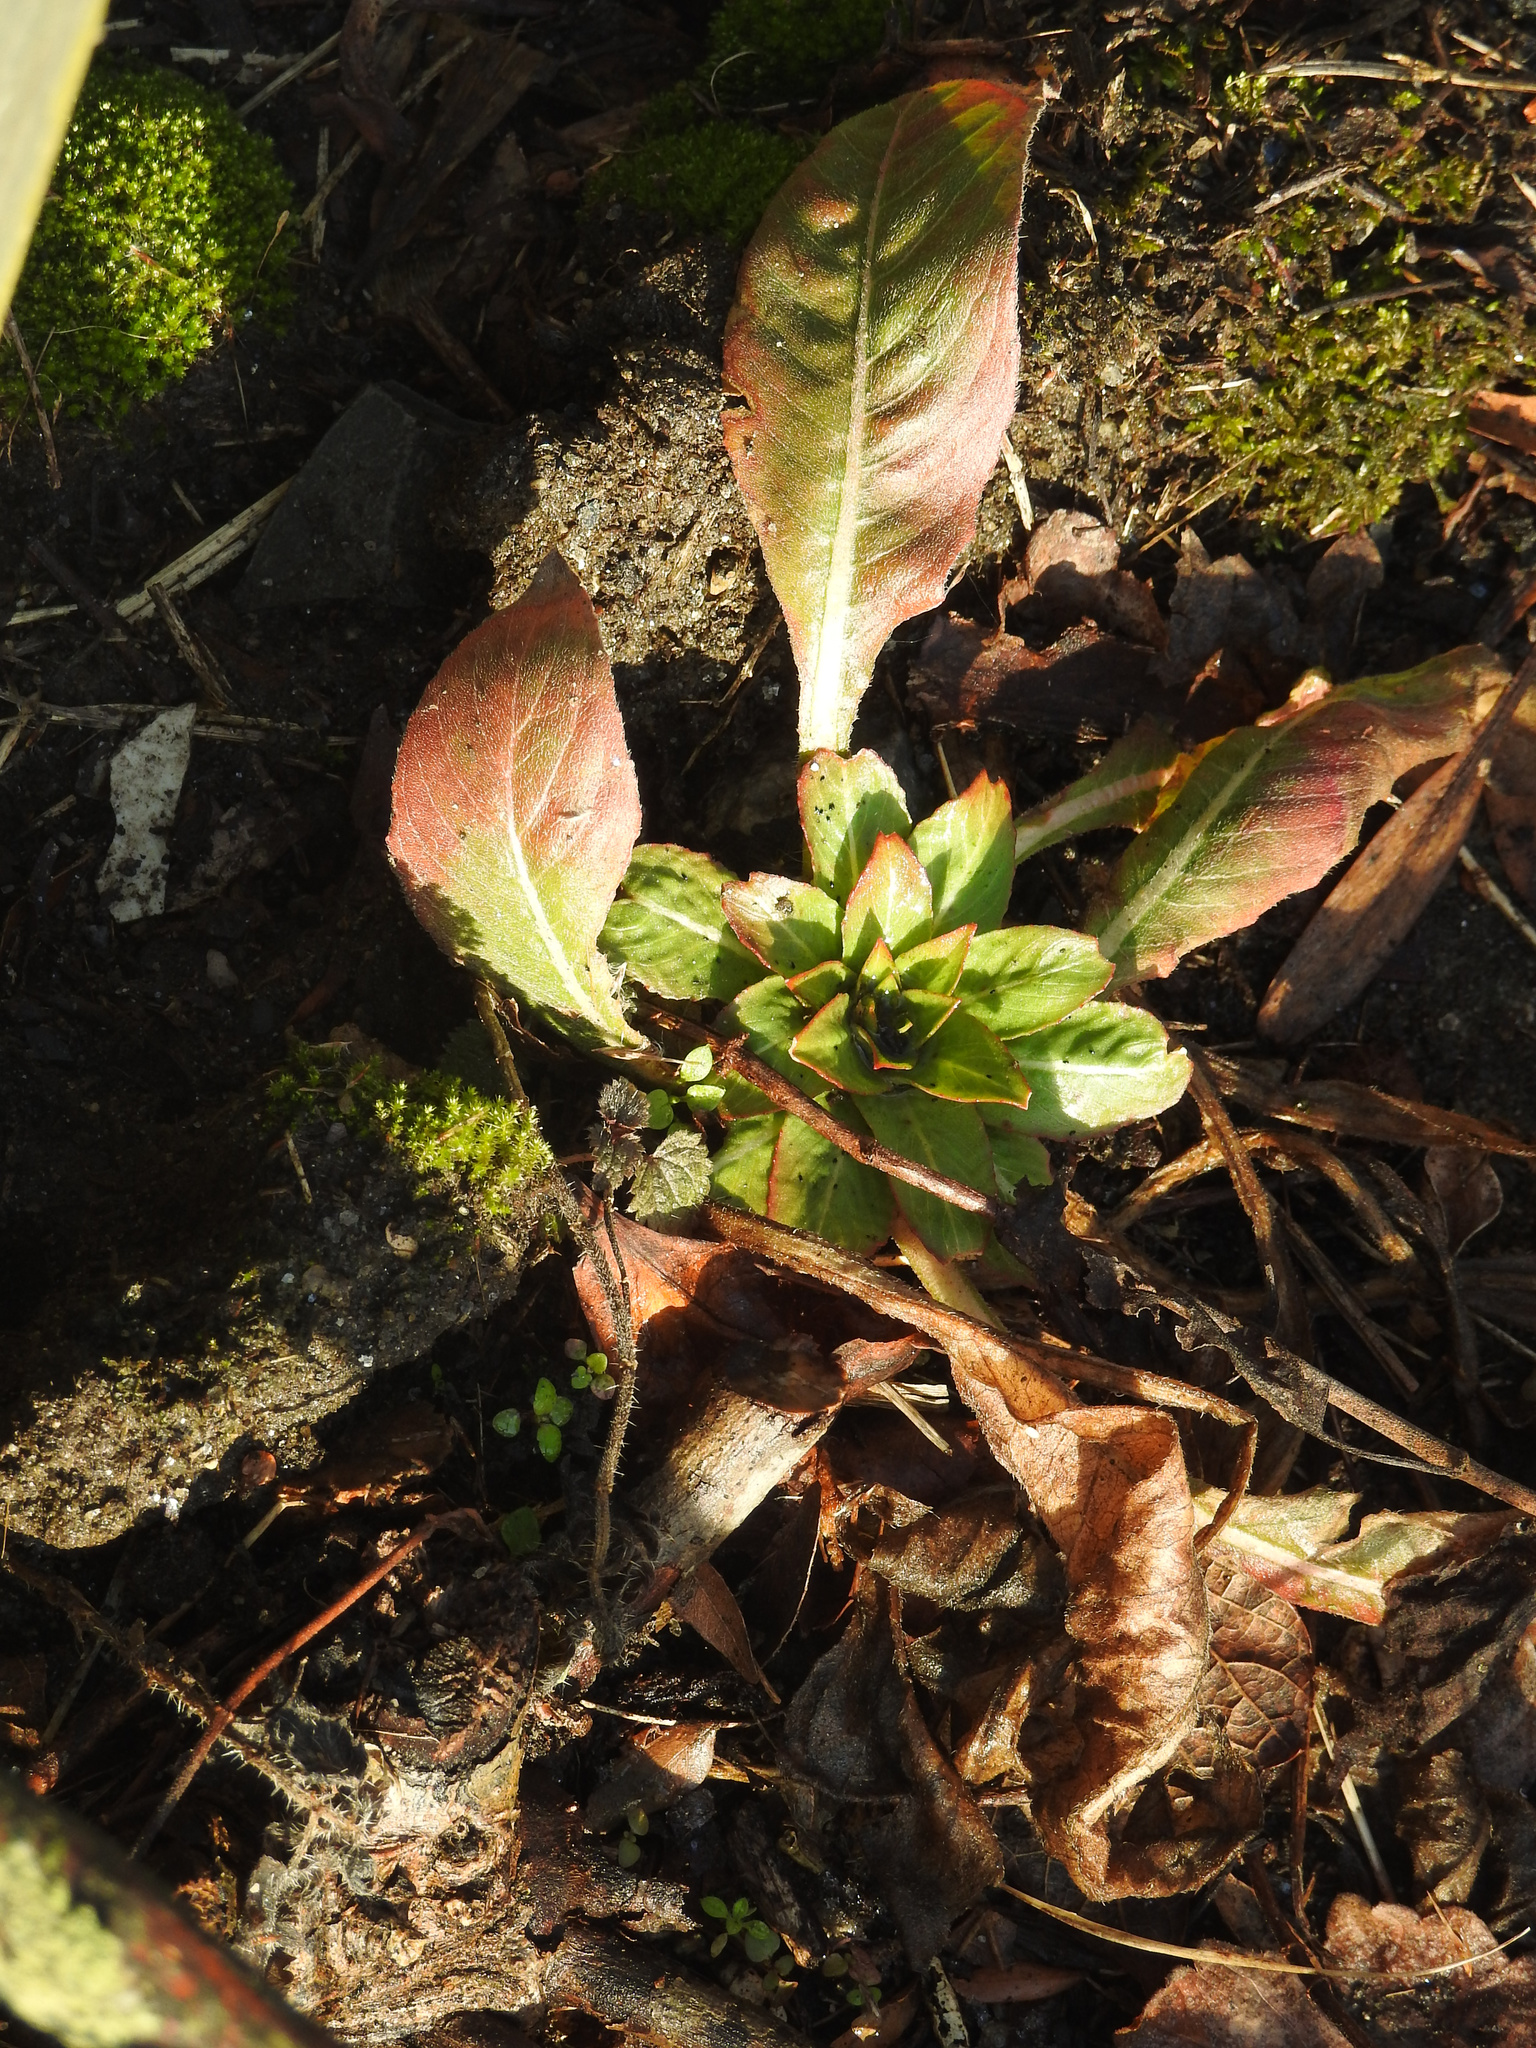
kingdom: Plantae
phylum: Tracheophyta
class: Magnoliopsida
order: Myrtales
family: Onagraceae
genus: Oenothera
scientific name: Oenothera biennis
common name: Common evening-primrose
